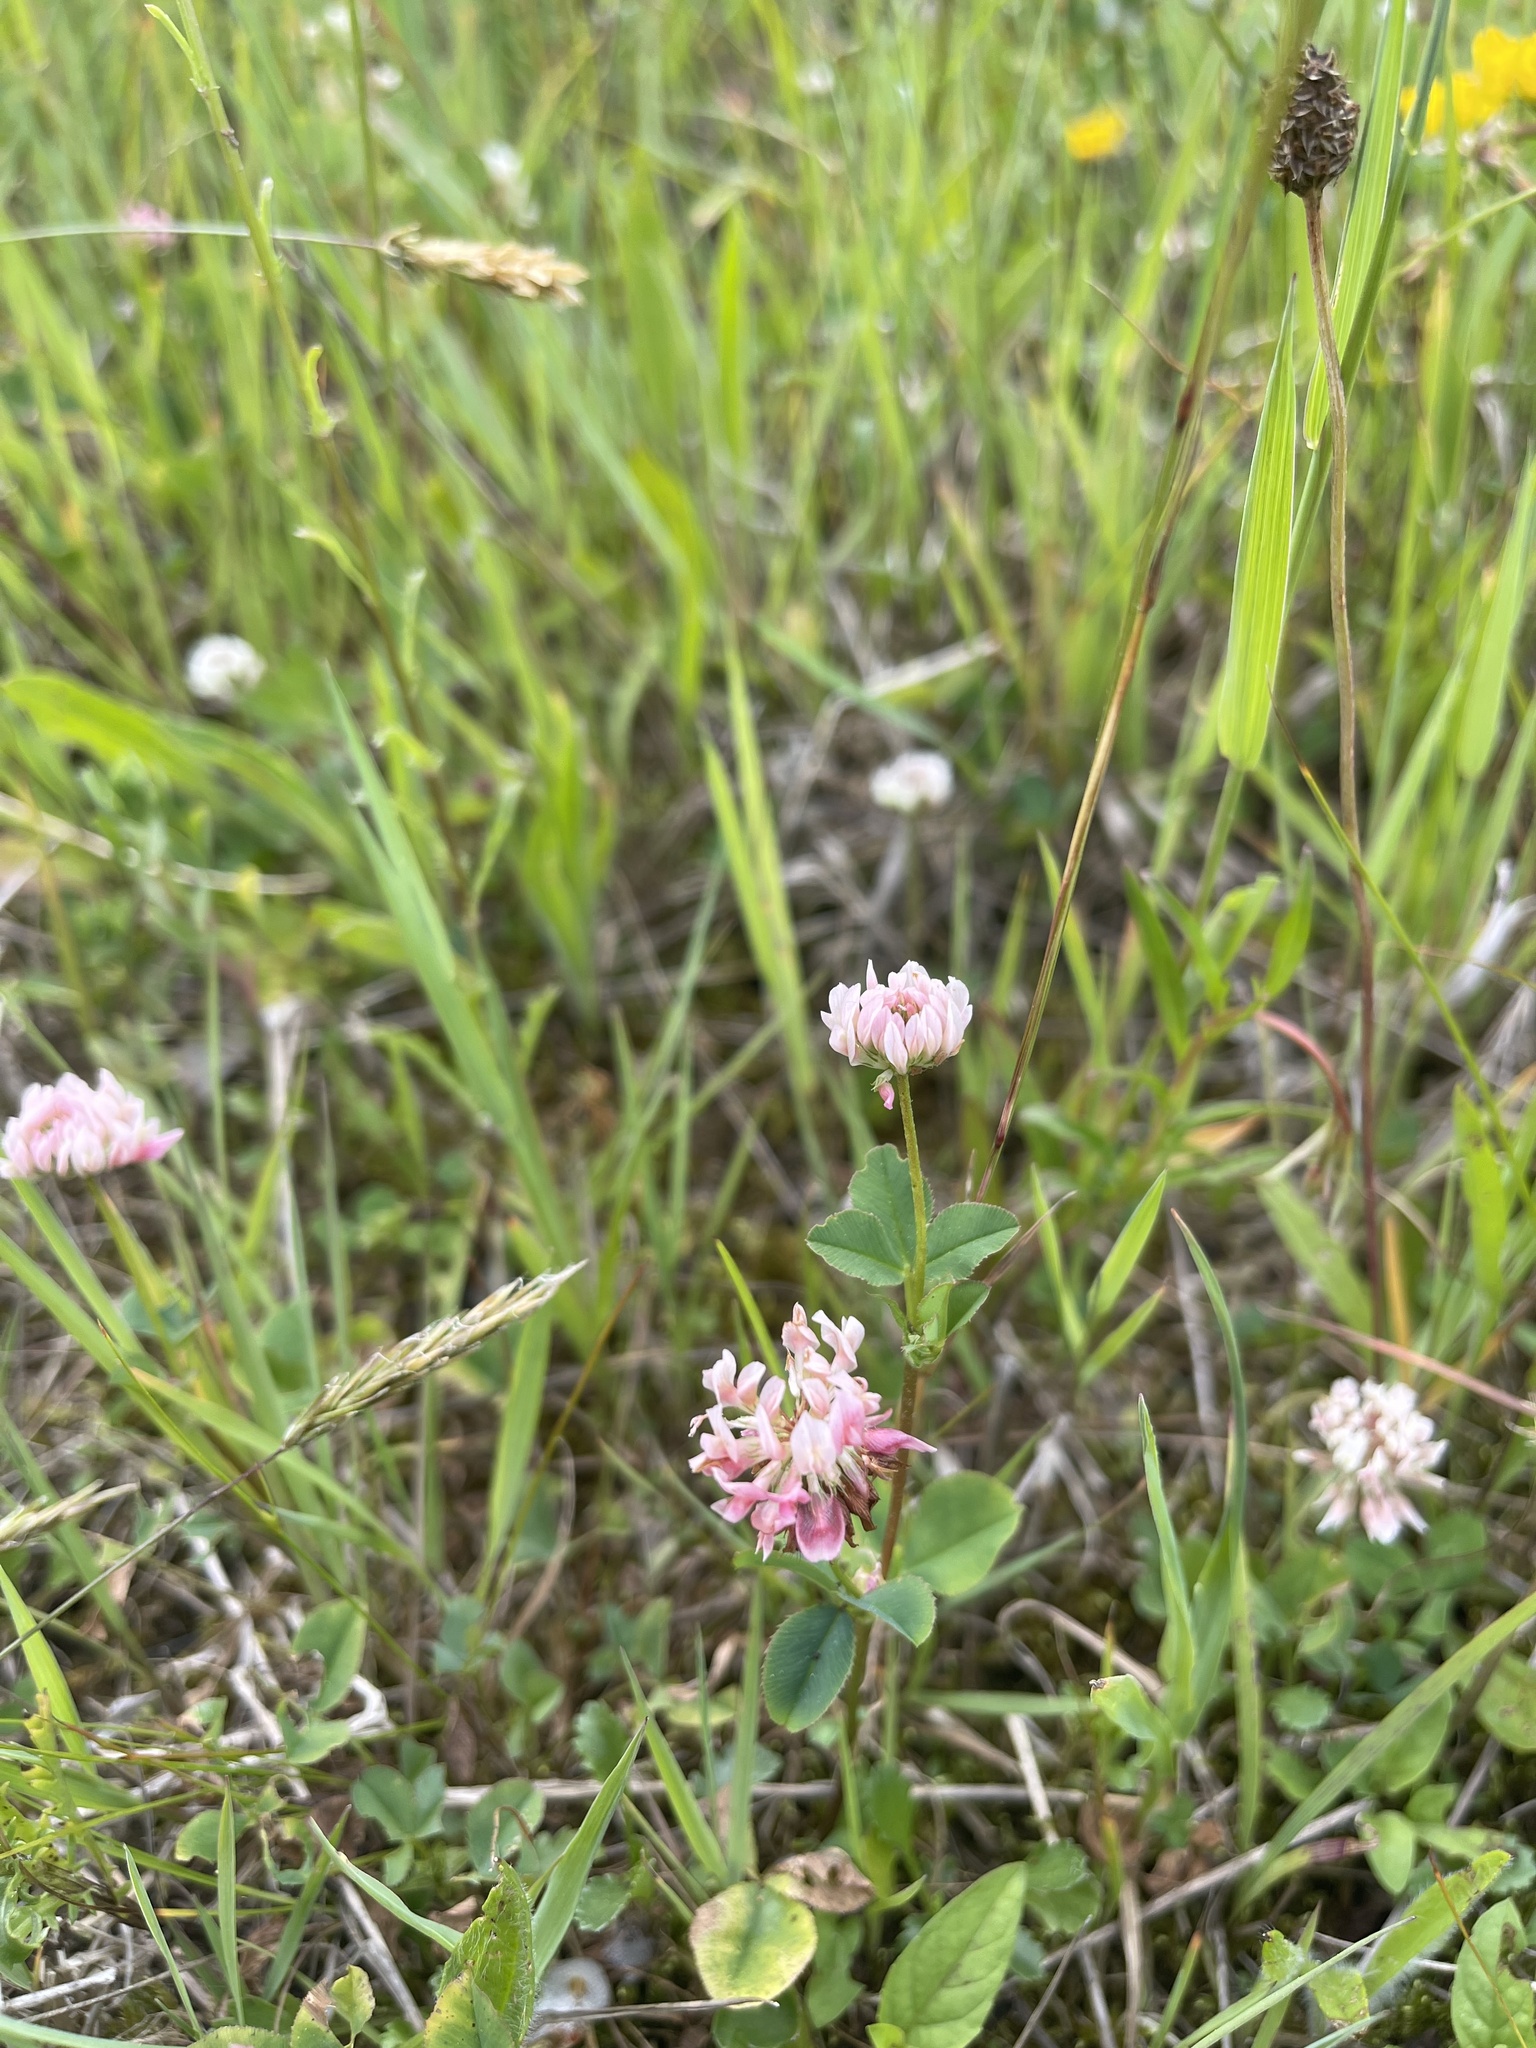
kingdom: Plantae
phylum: Tracheophyta
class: Magnoliopsida
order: Fabales
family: Fabaceae
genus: Trifolium
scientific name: Trifolium hybridum
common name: Alsike clover
